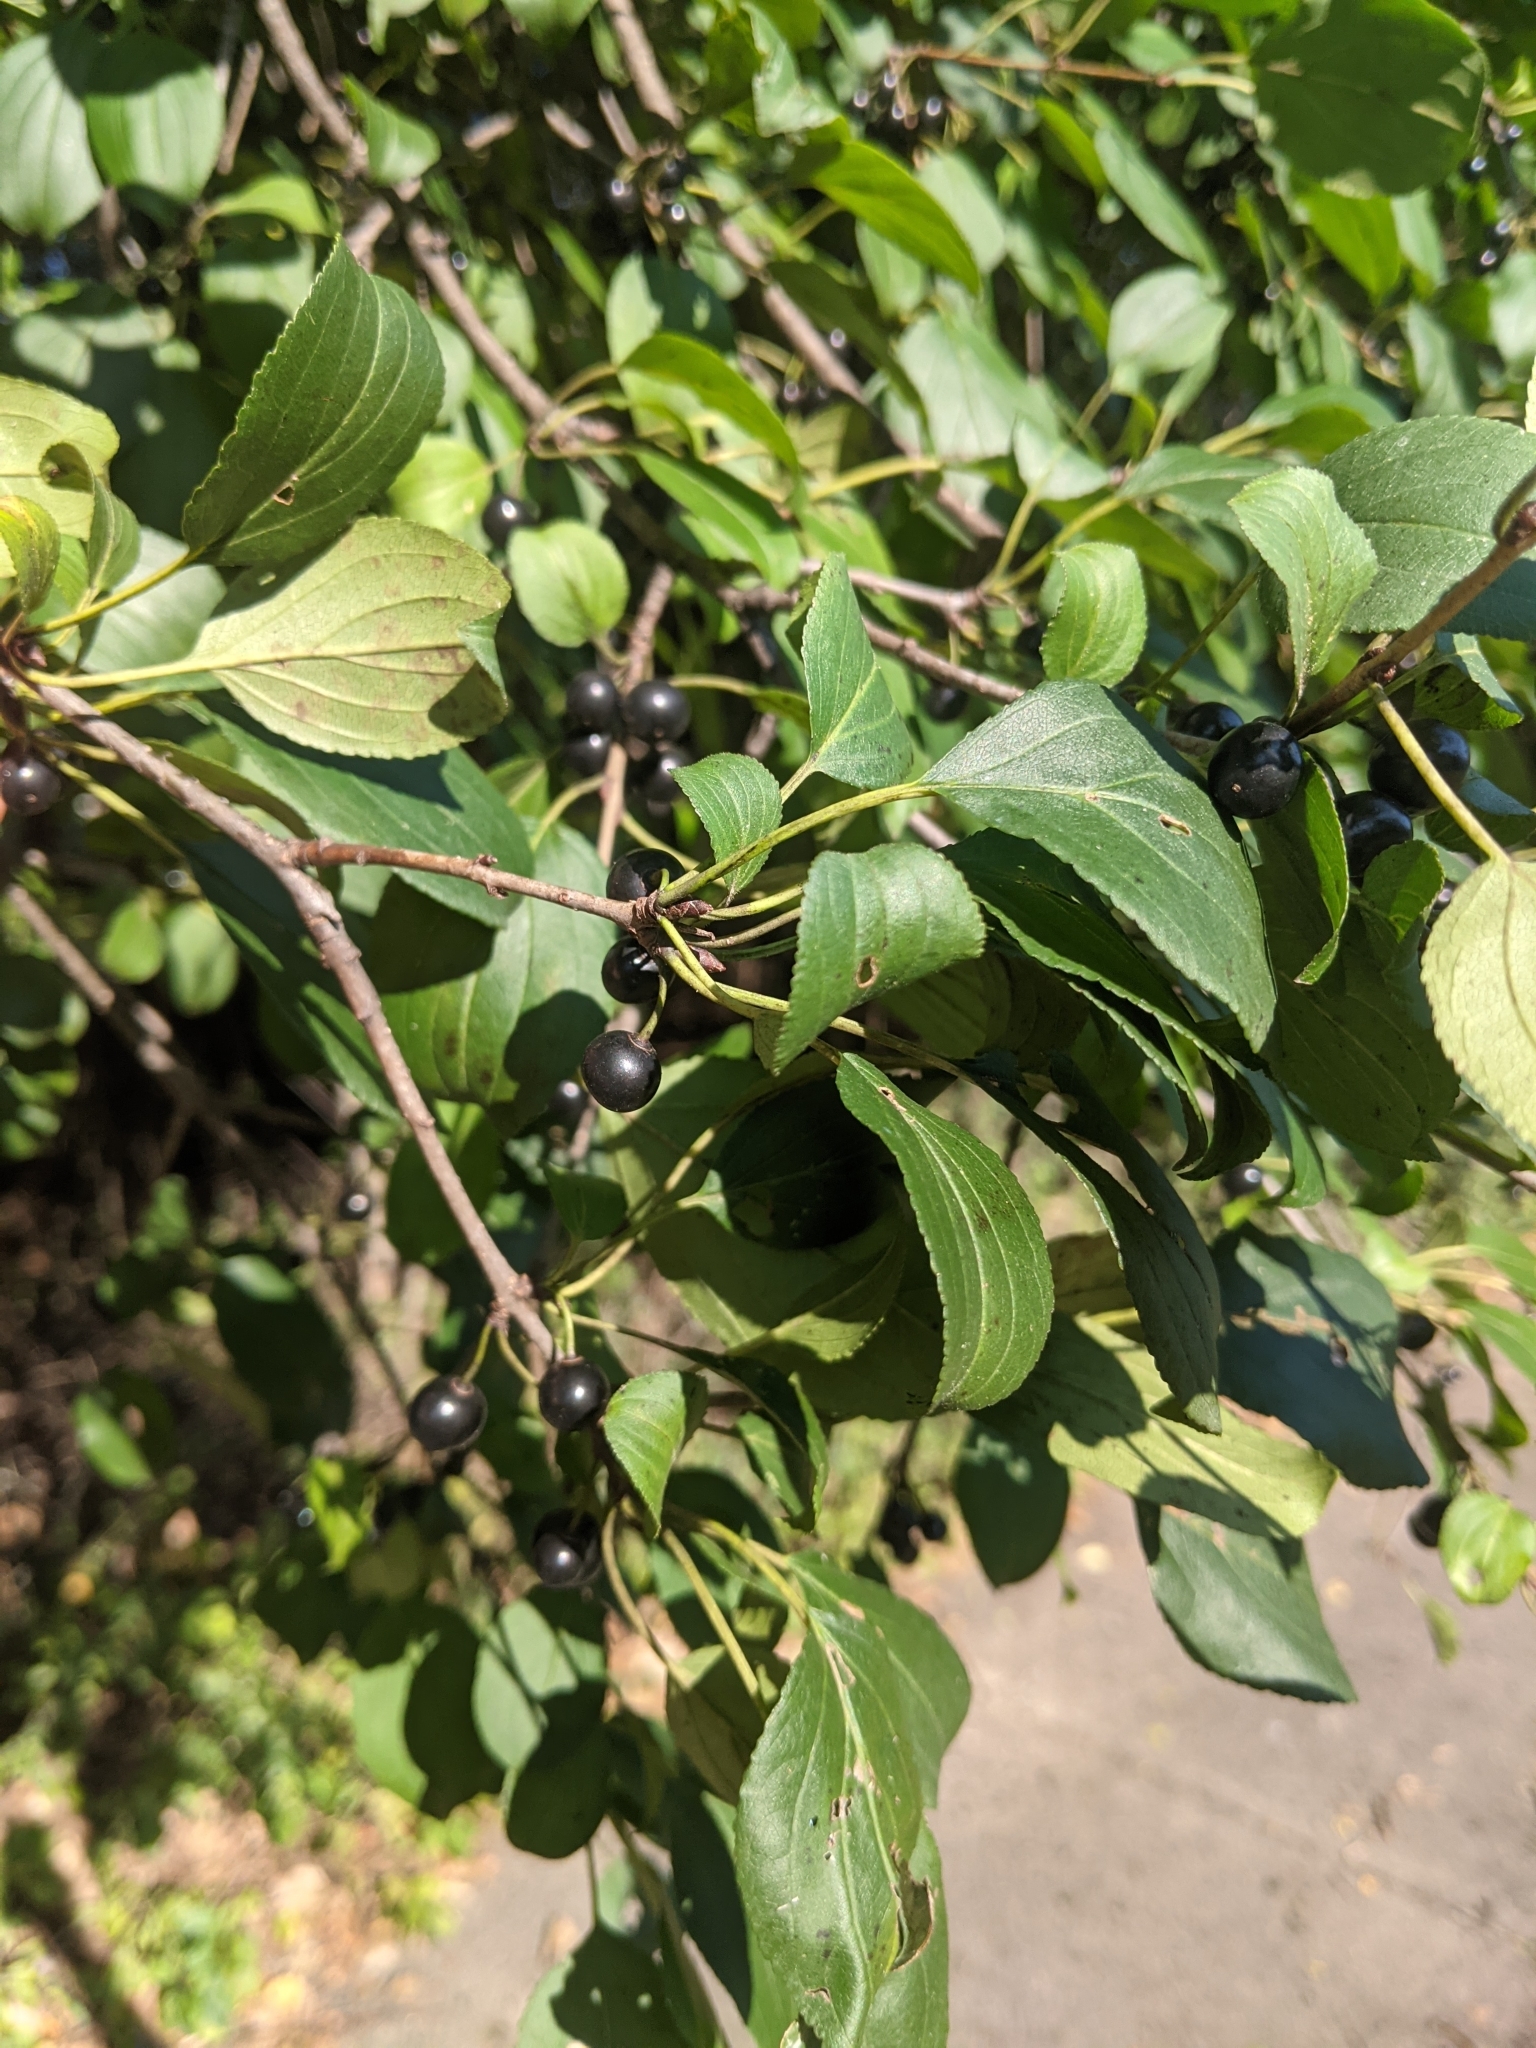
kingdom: Plantae
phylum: Tracheophyta
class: Magnoliopsida
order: Rosales
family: Rhamnaceae
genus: Rhamnus
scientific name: Rhamnus cathartica
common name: Common buckthorn
